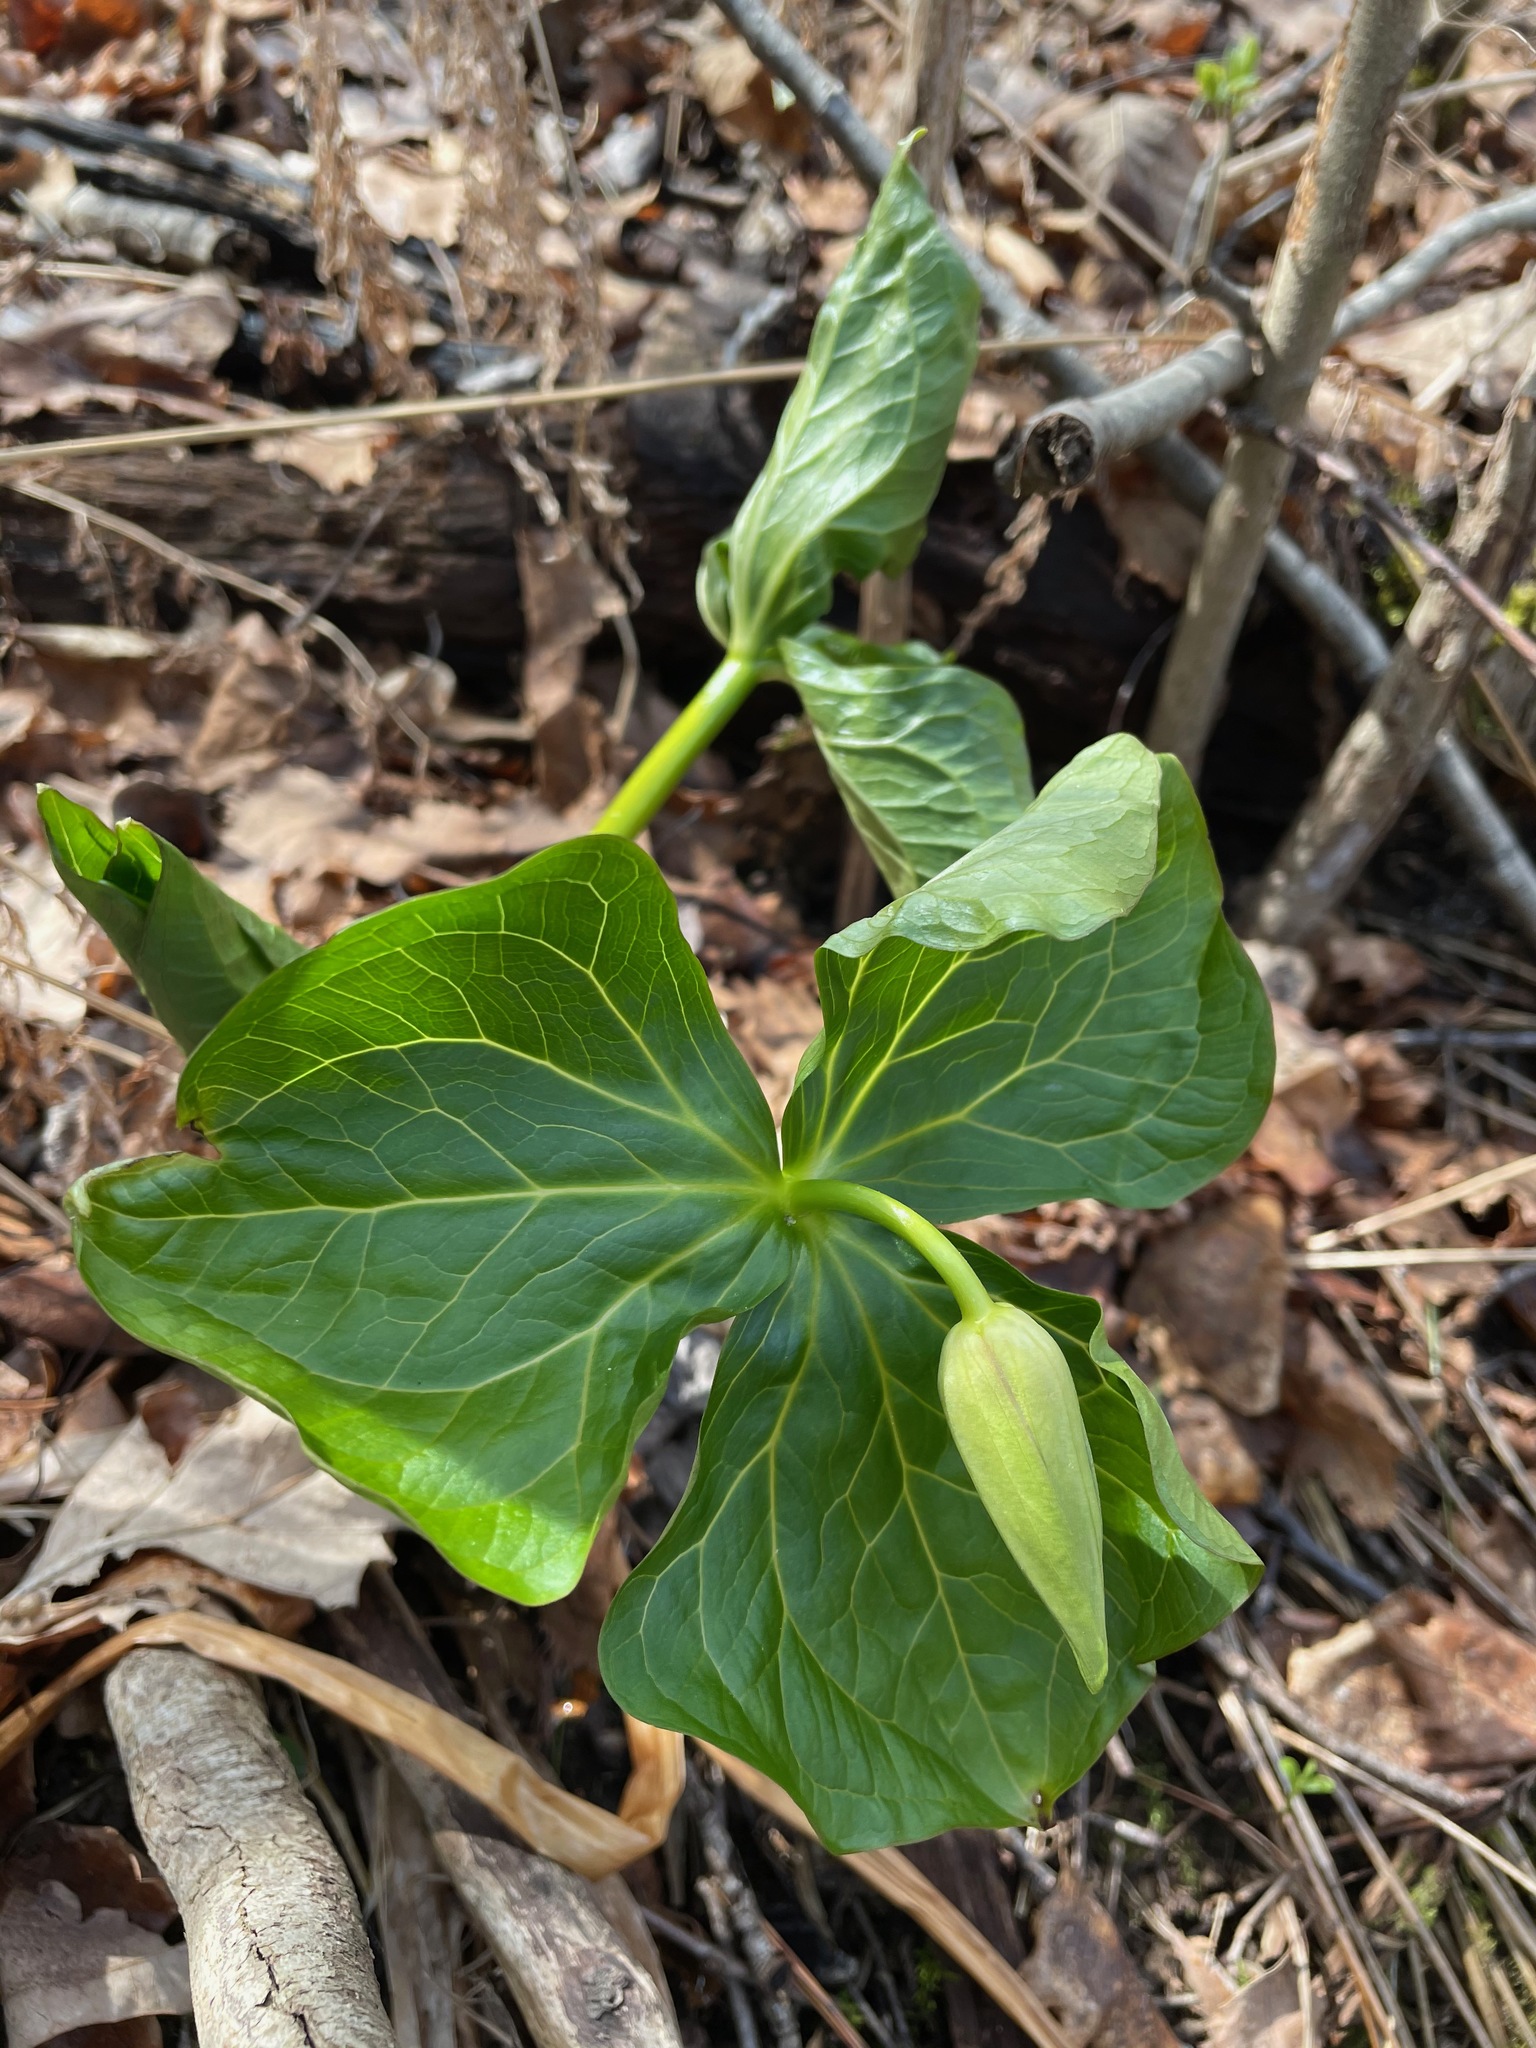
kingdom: Plantae
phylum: Tracheophyta
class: Liliopsida
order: Liliales
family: Melanthiaceae
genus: Trillium
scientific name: Trillium erectum
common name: Purple trillium
